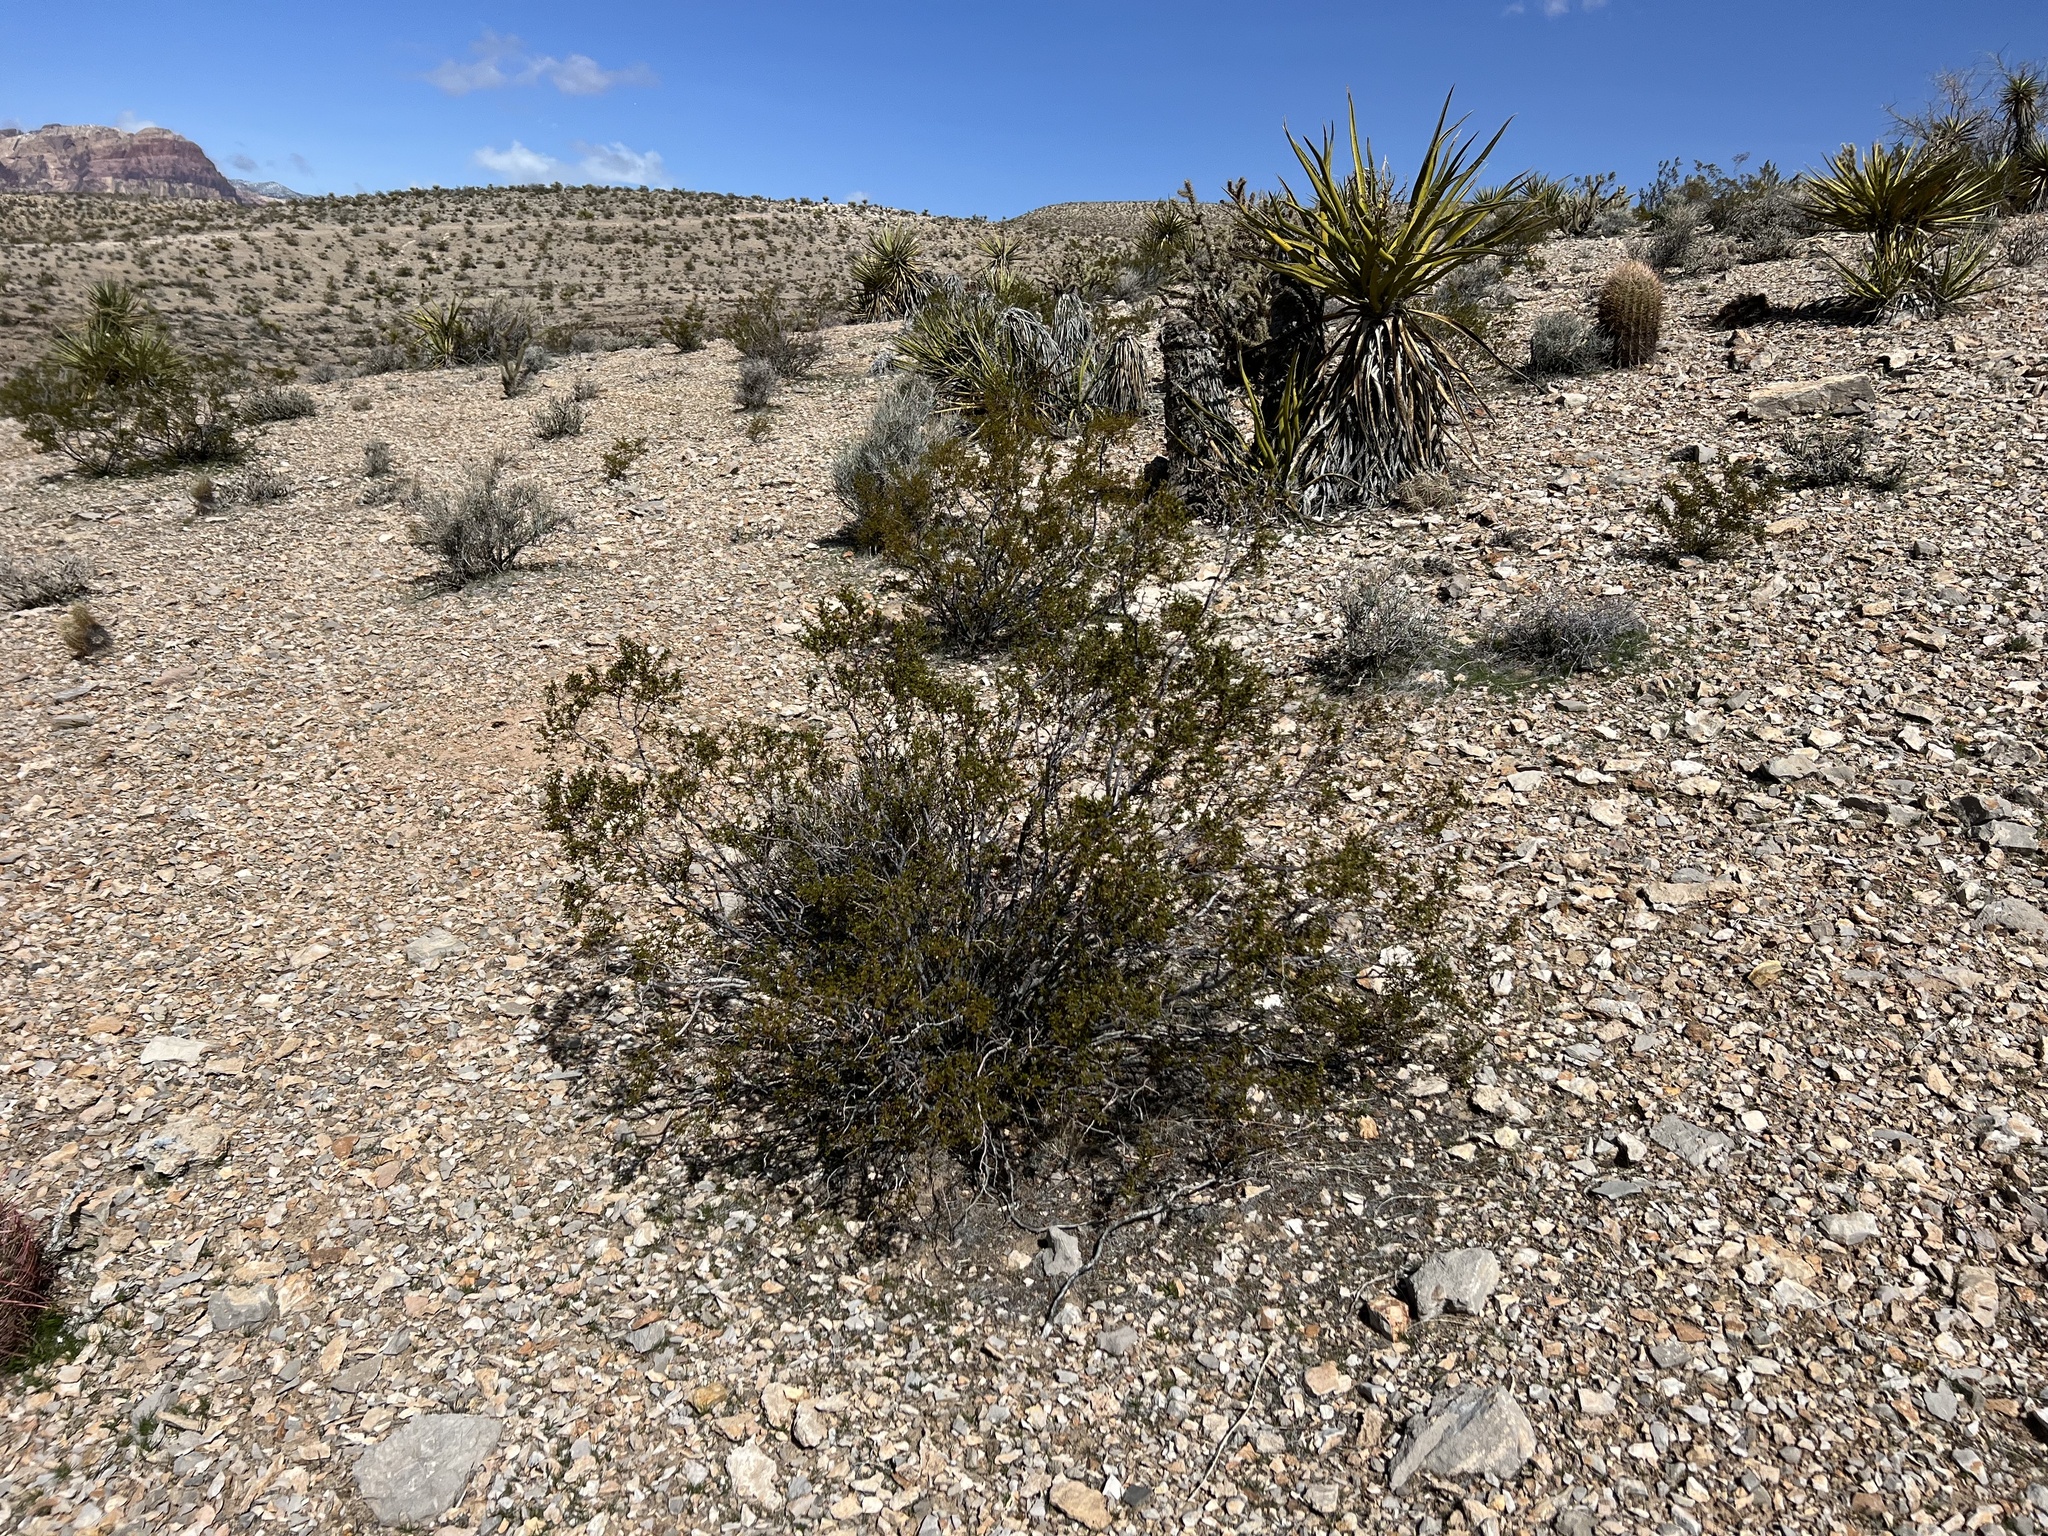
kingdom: Plantae
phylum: Tracheophyta
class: Magnoliopsida
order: Zygophyllales
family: Zygophyllaceae
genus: Larrea
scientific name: Larrea tridentata
